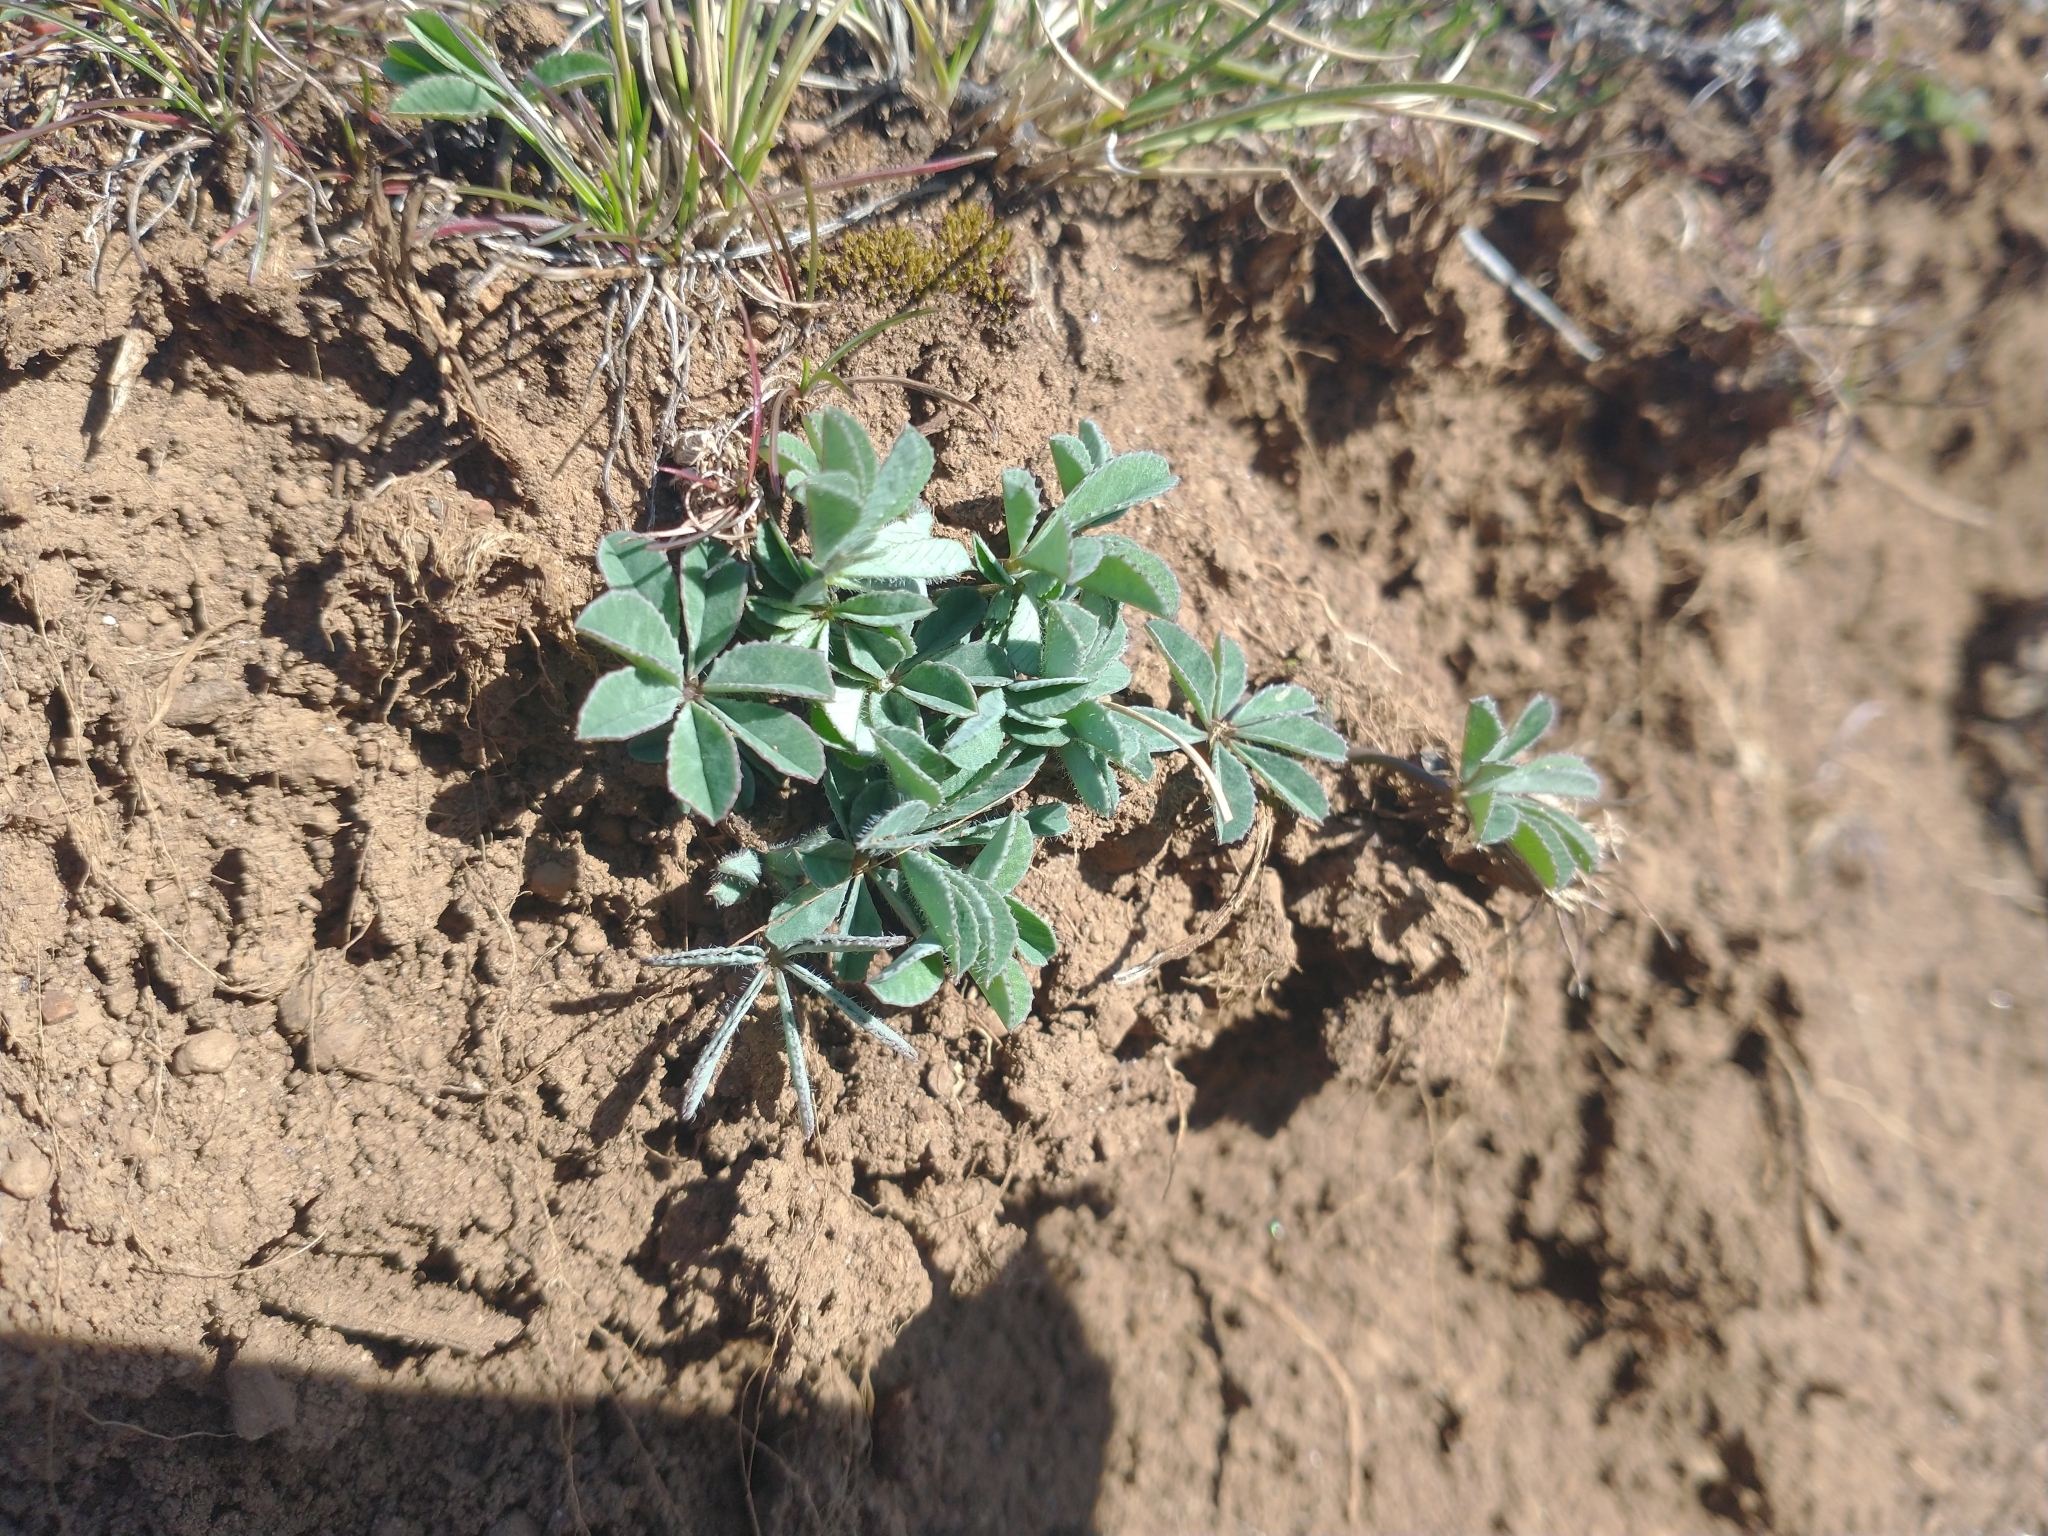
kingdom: Plantae
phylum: Tracheophyta
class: Magnoliopsida
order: Fabales
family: Fabaceae
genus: Trifolium
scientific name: Trifolium macrocephalum
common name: Large-head clover
